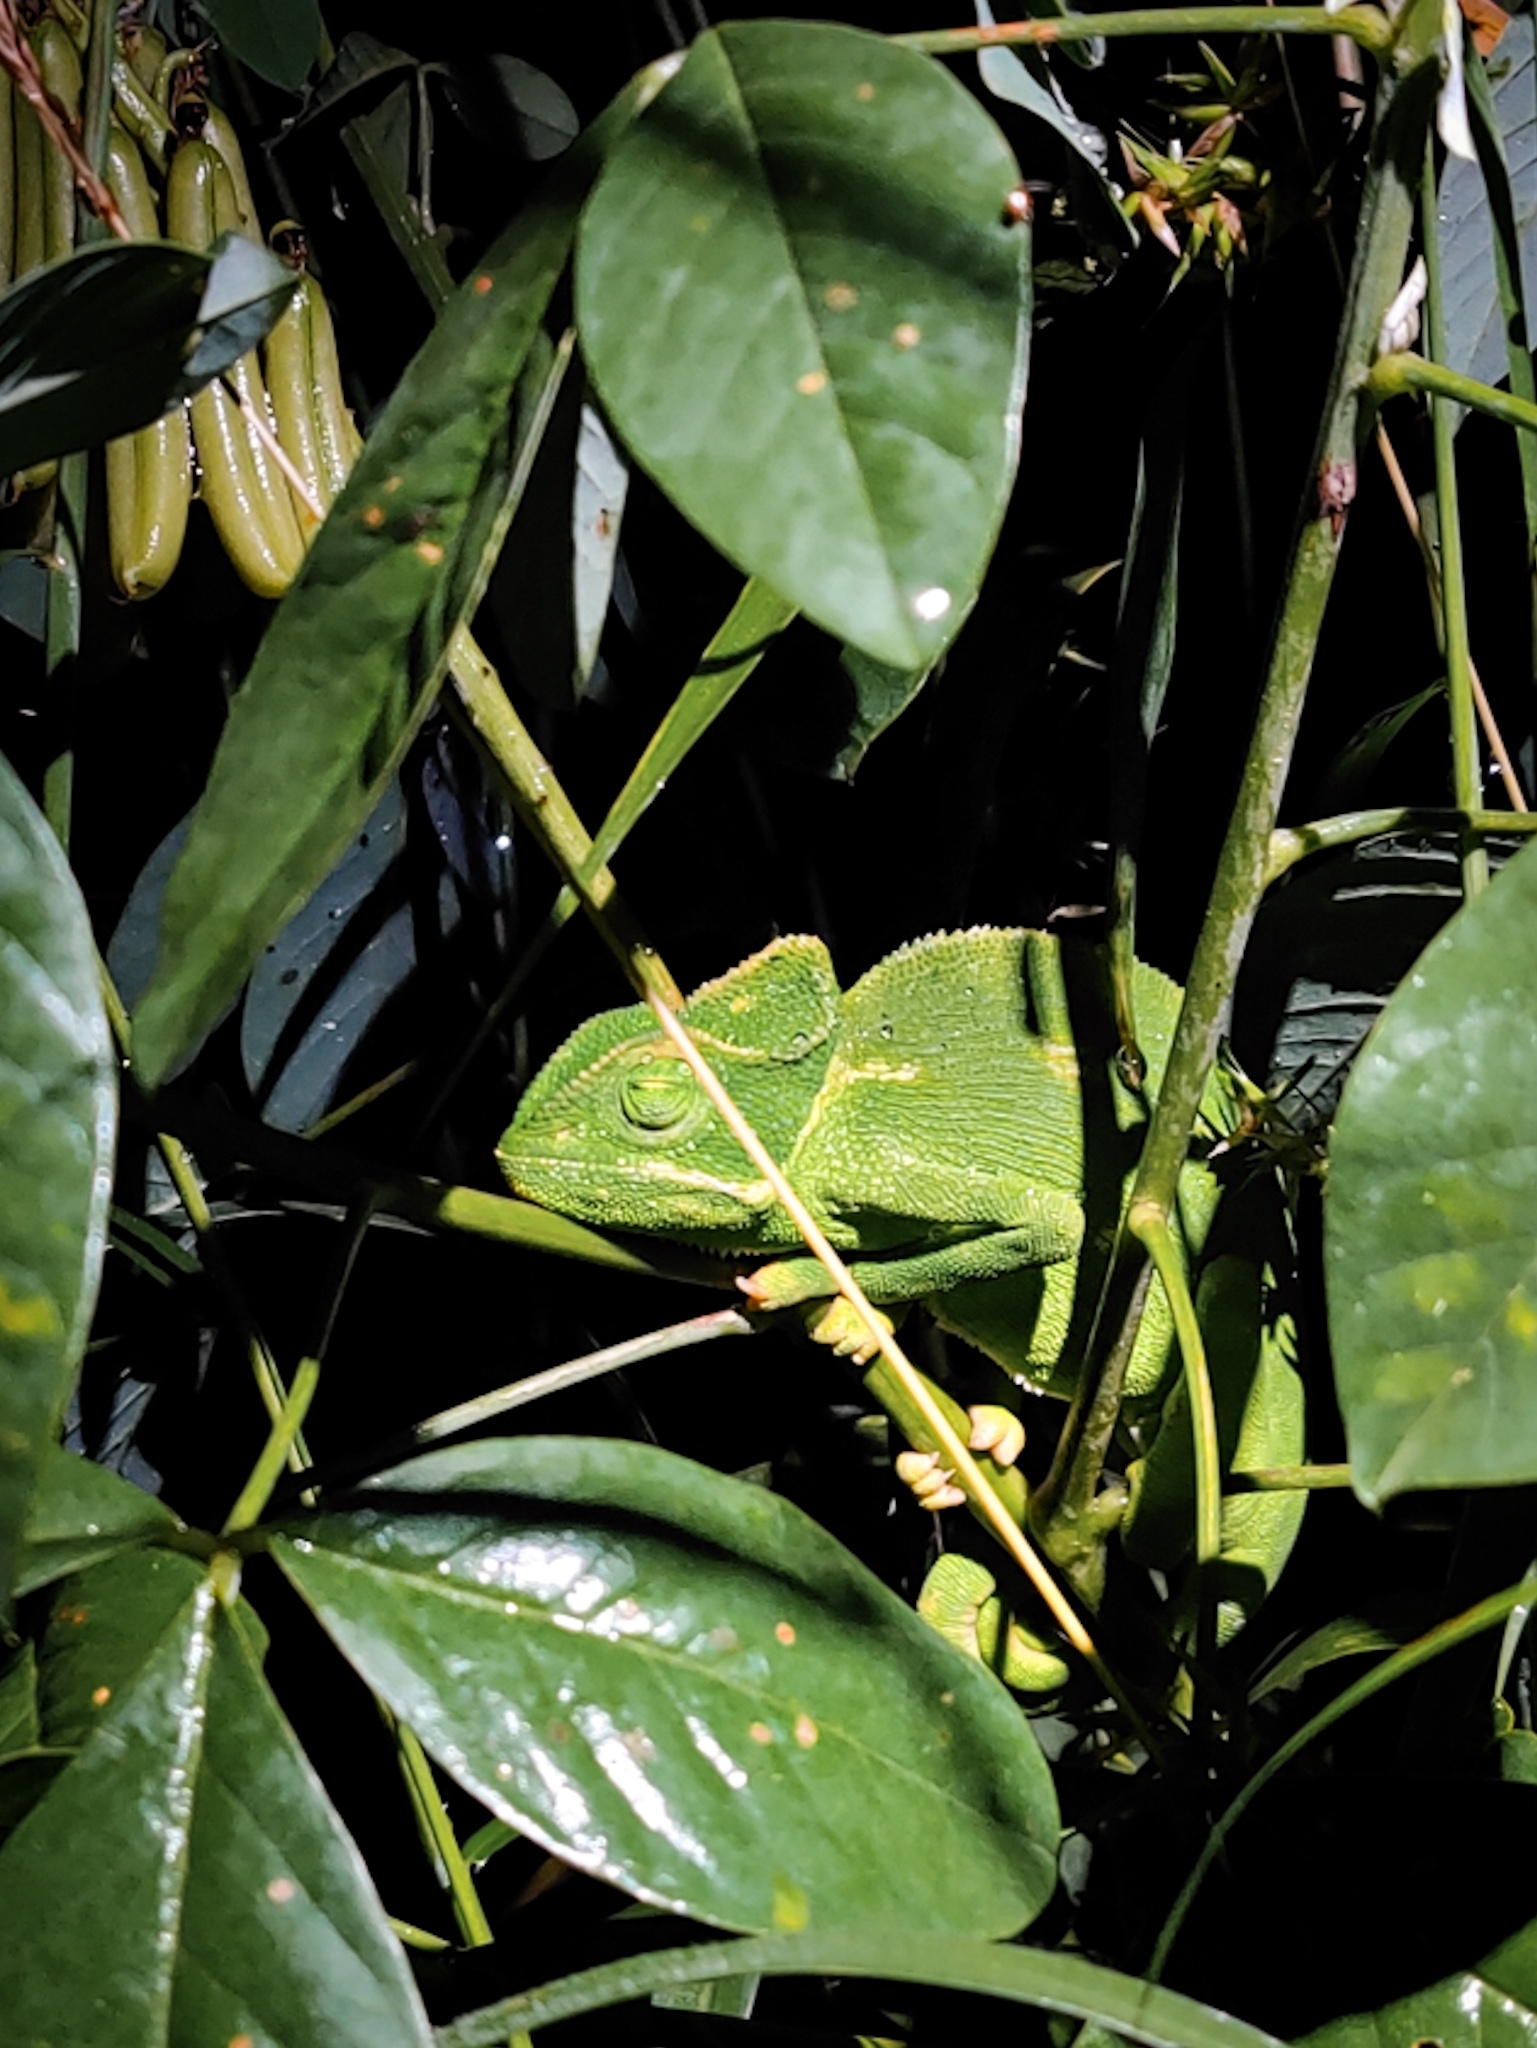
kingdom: Animalia
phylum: Chordata
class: Squamata
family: Chamaeleonidae
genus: Chamaeleo
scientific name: Chamaeleo zeylanicus
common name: Indian chameleon
